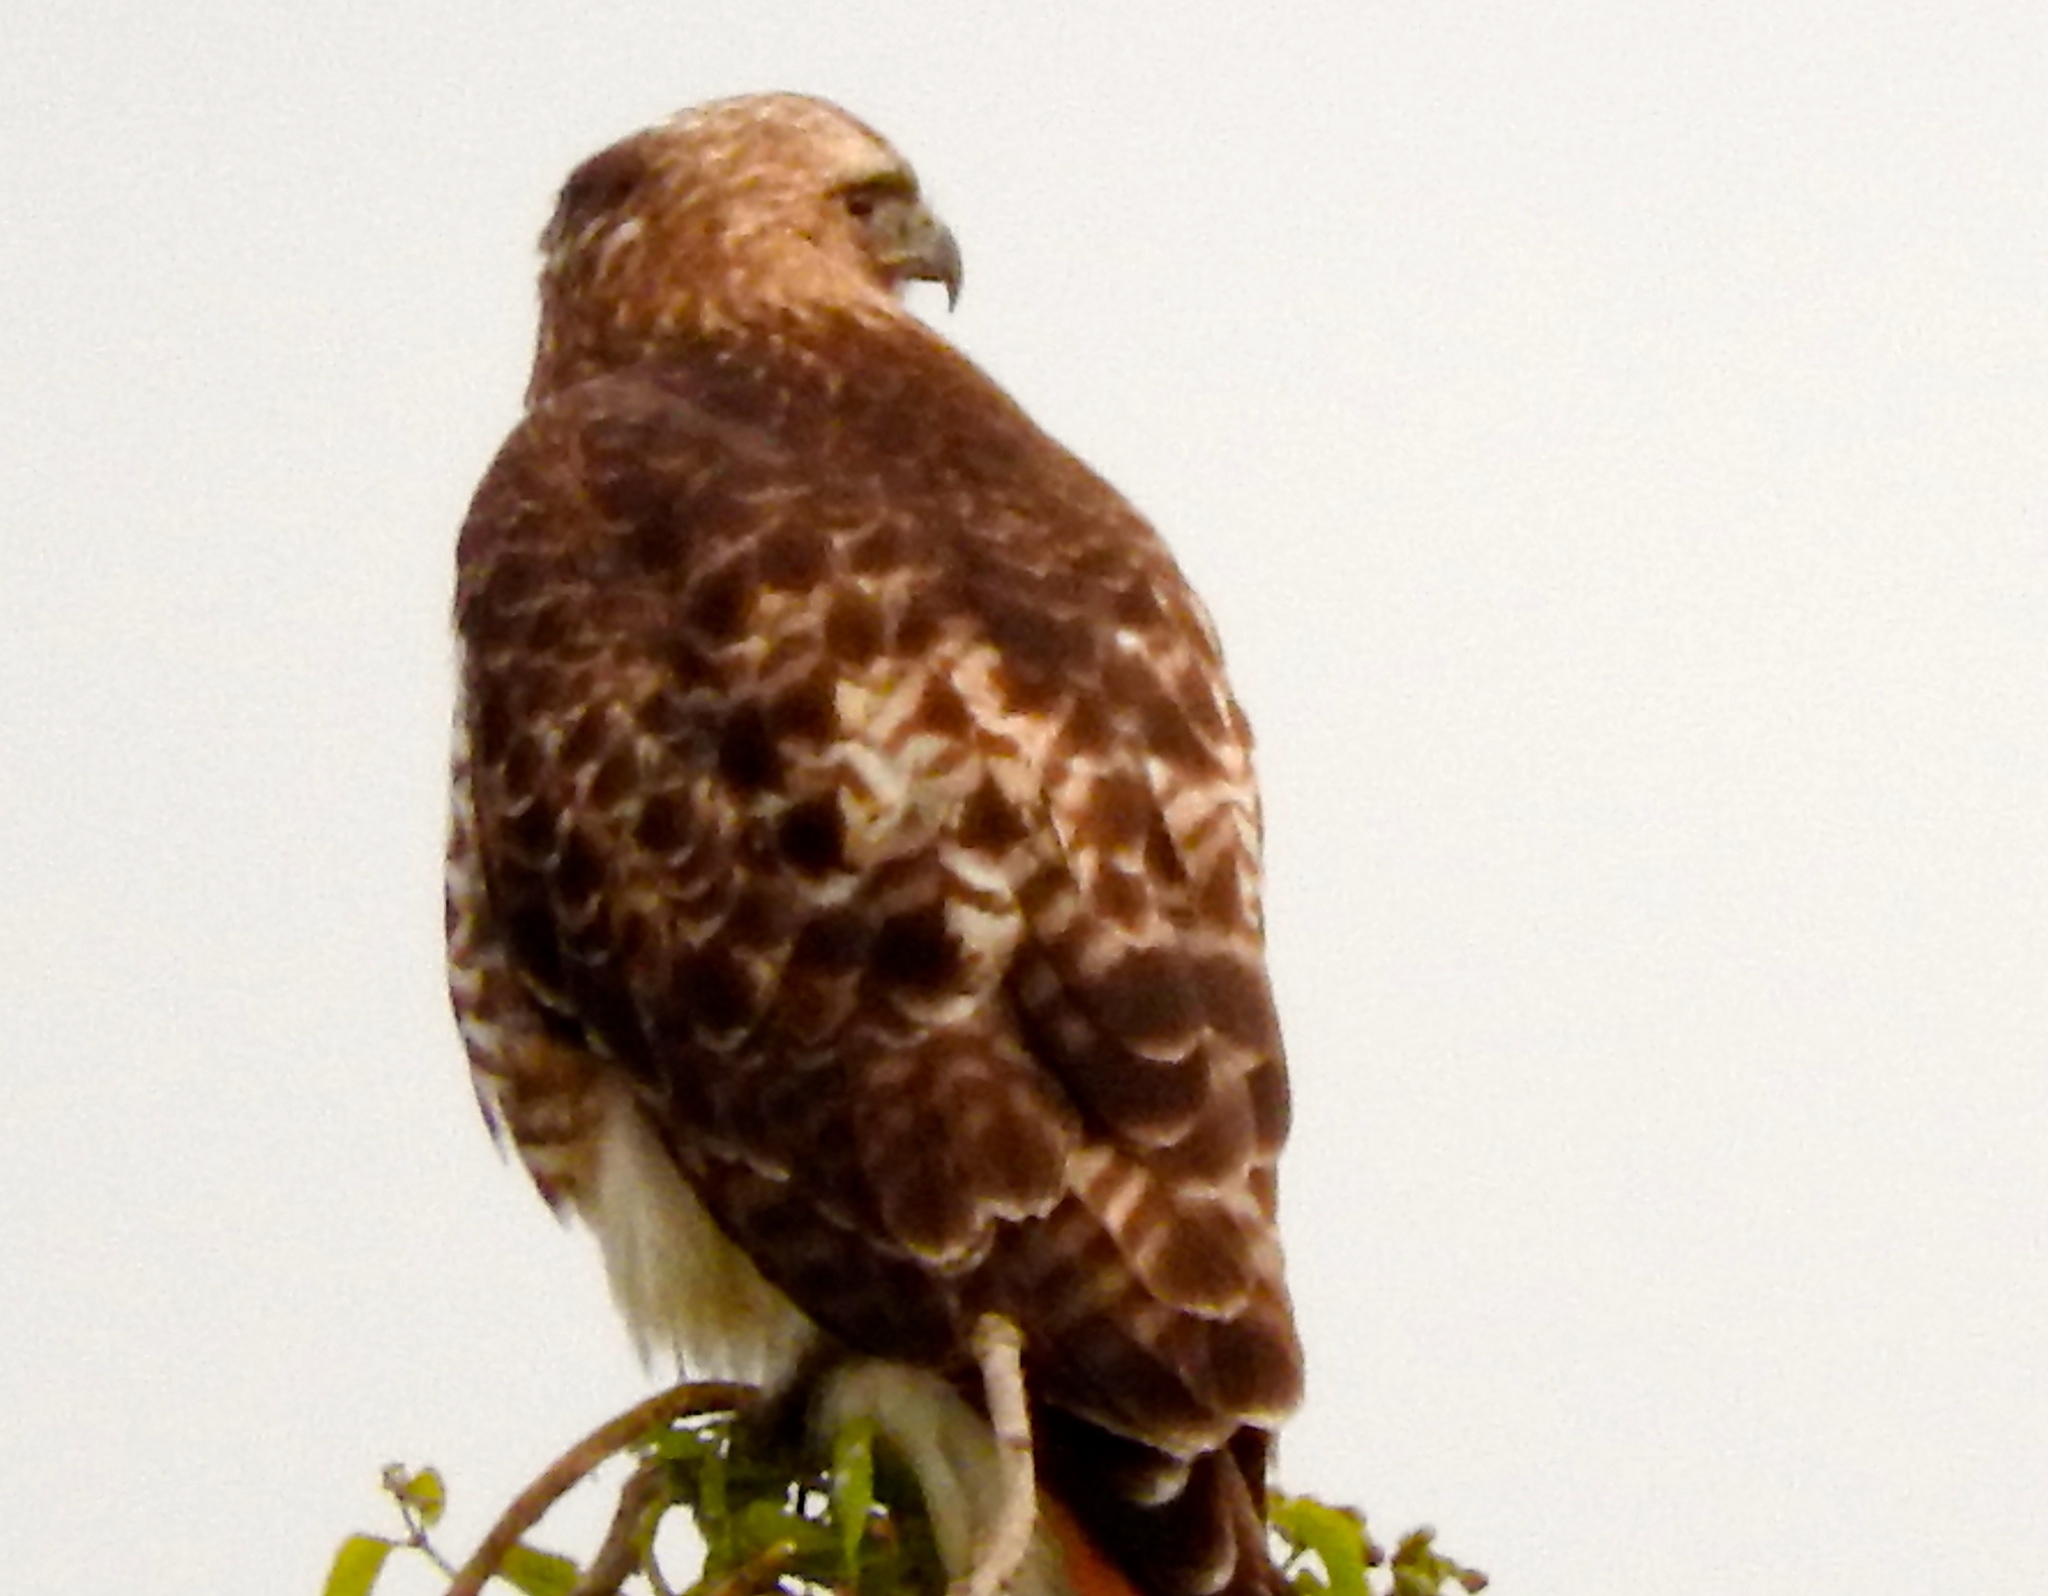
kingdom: Animalia
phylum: Chordata
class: Aves
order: Accipitriformes
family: Accipitridae
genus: Buteo
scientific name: Buteo jamaicensis
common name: Red-tailed hawk
